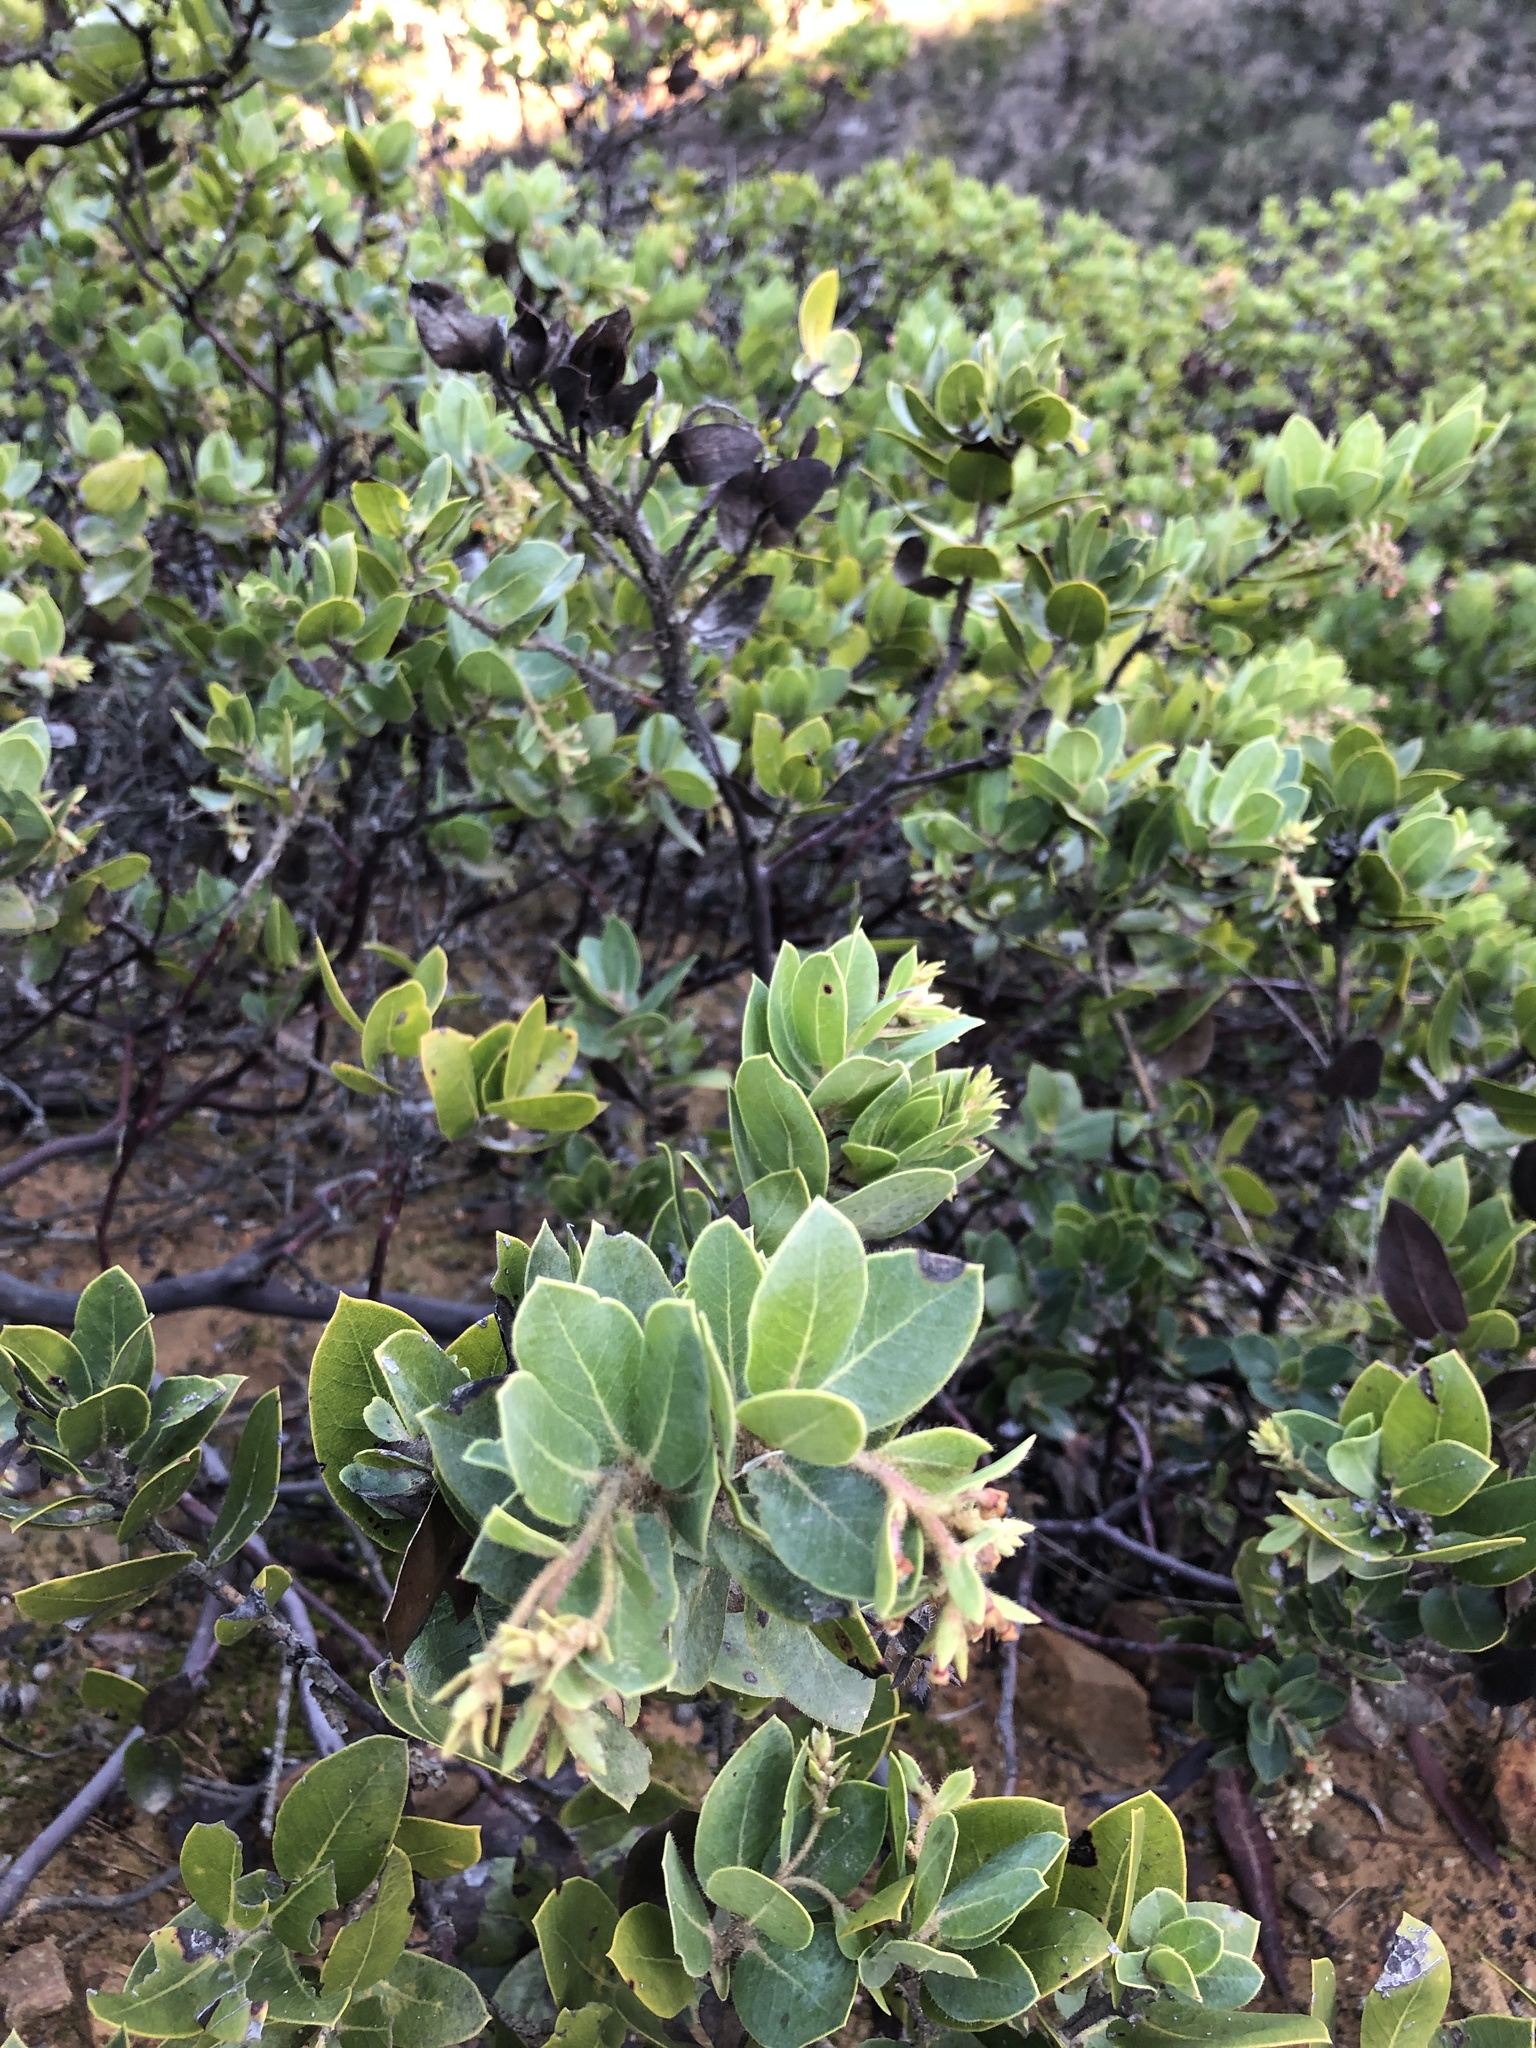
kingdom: Plantae
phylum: Tracheophyta
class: Magnoliopsida
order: Ericales
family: Ericaceae
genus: Arctostaphylos
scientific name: Arctostaphylos montaraensis
